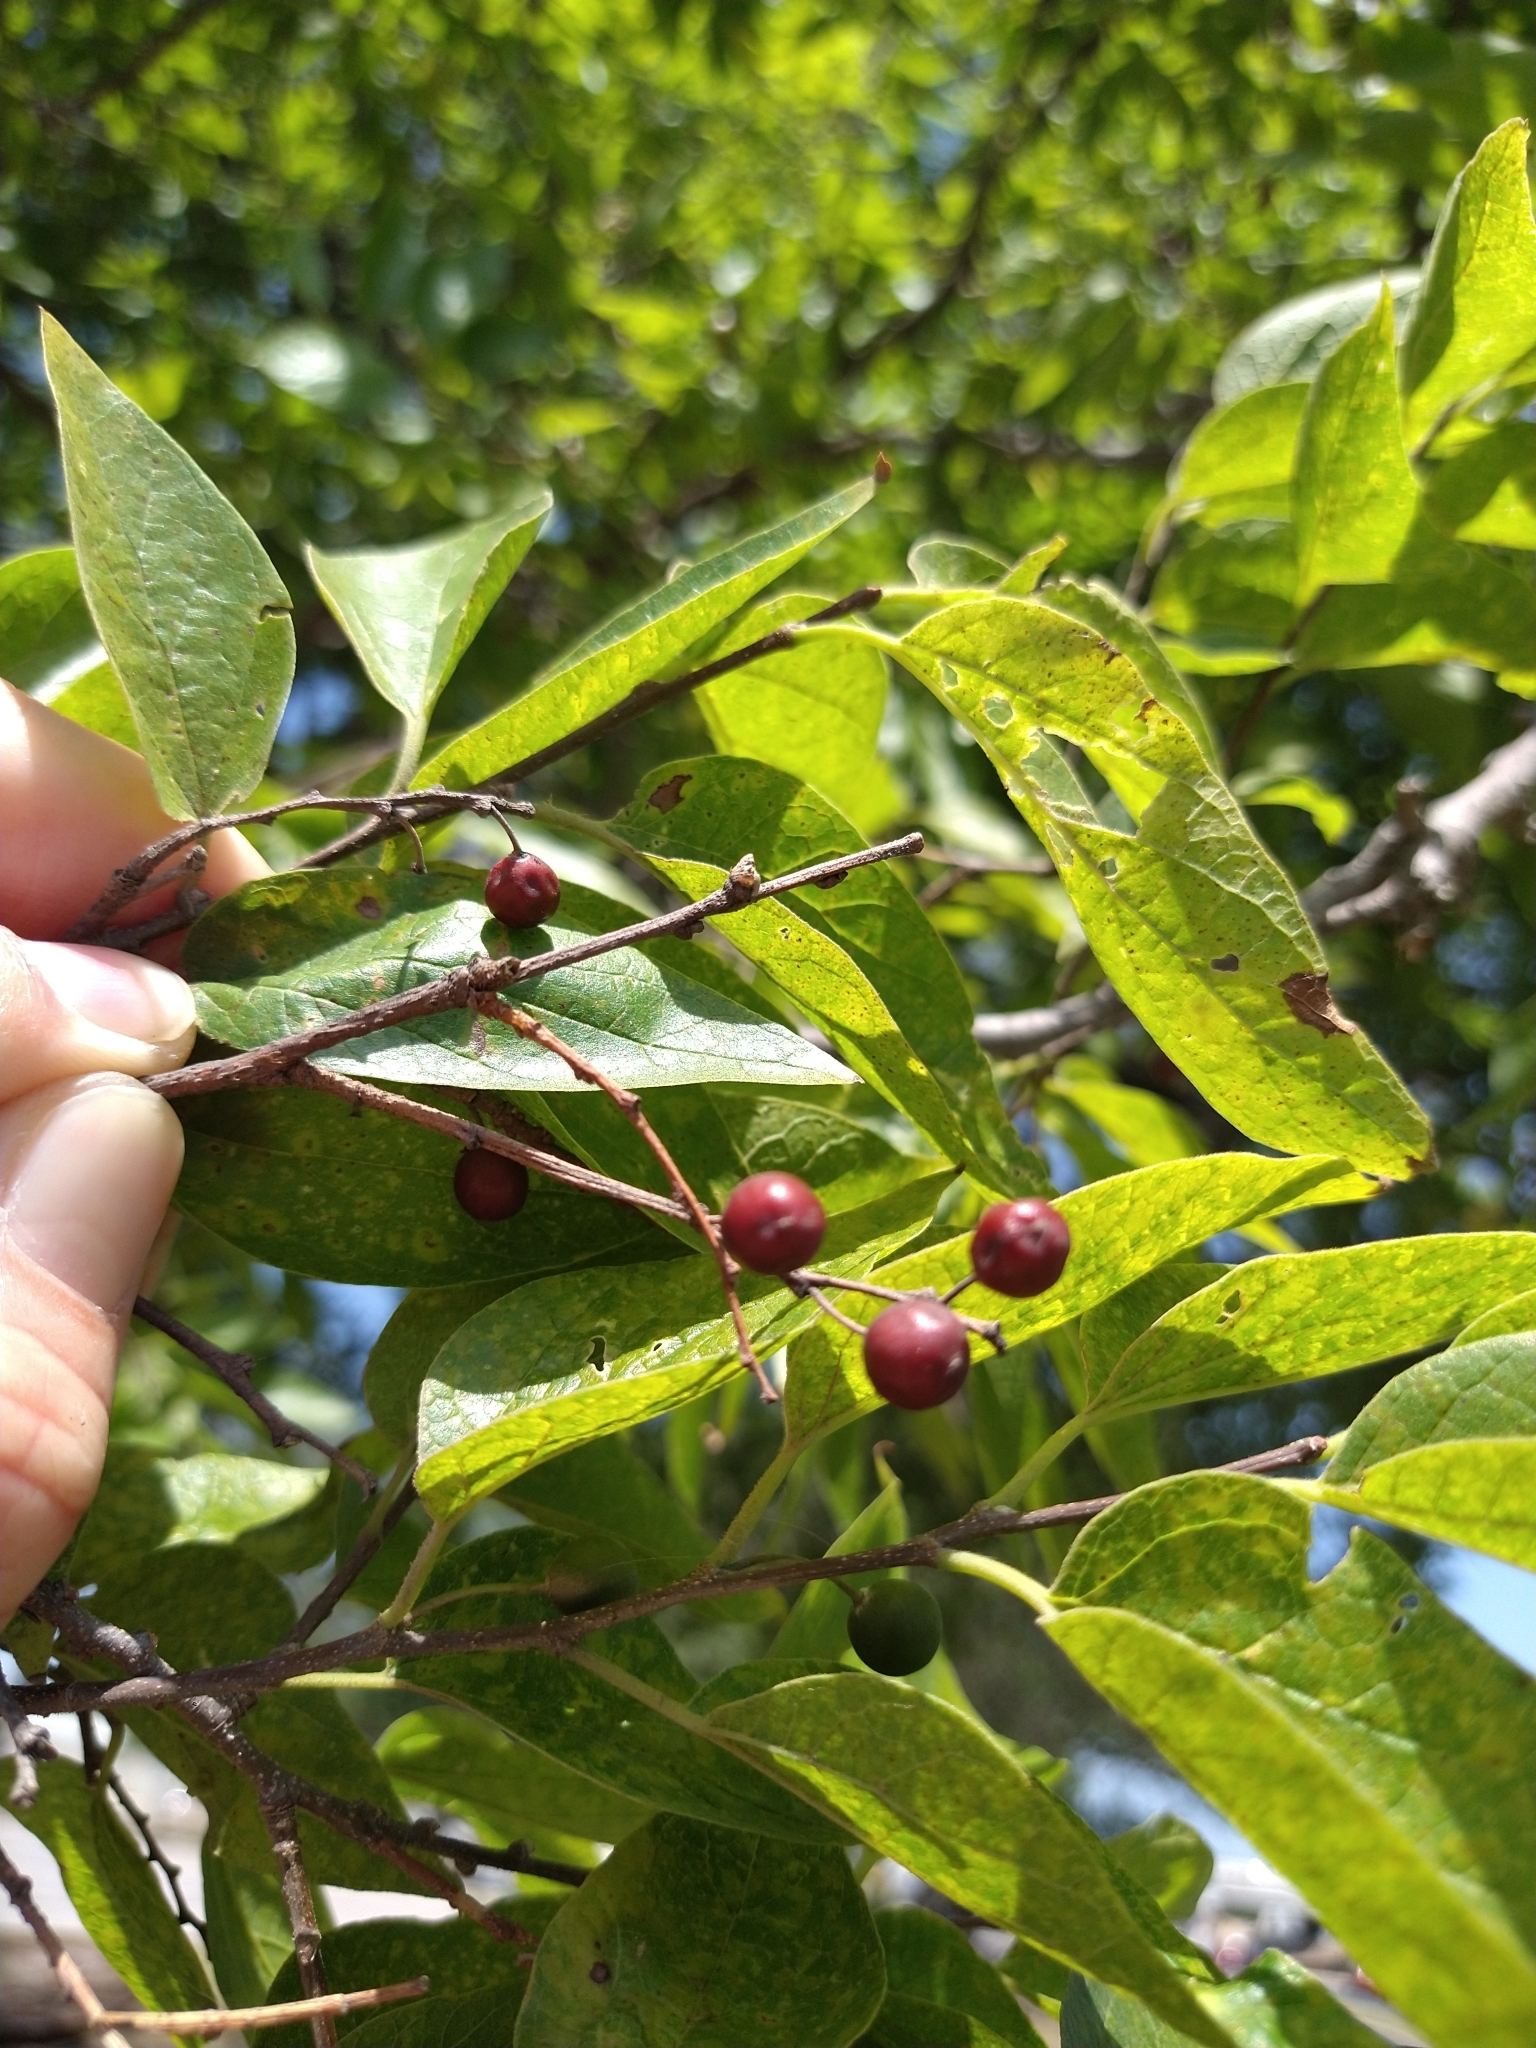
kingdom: Plantae
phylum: Tracheophyta
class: Magnoliopsida
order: Rosales
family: Cannabaceae
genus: Celtis
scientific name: Celtis laevigata
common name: Sugarberry
